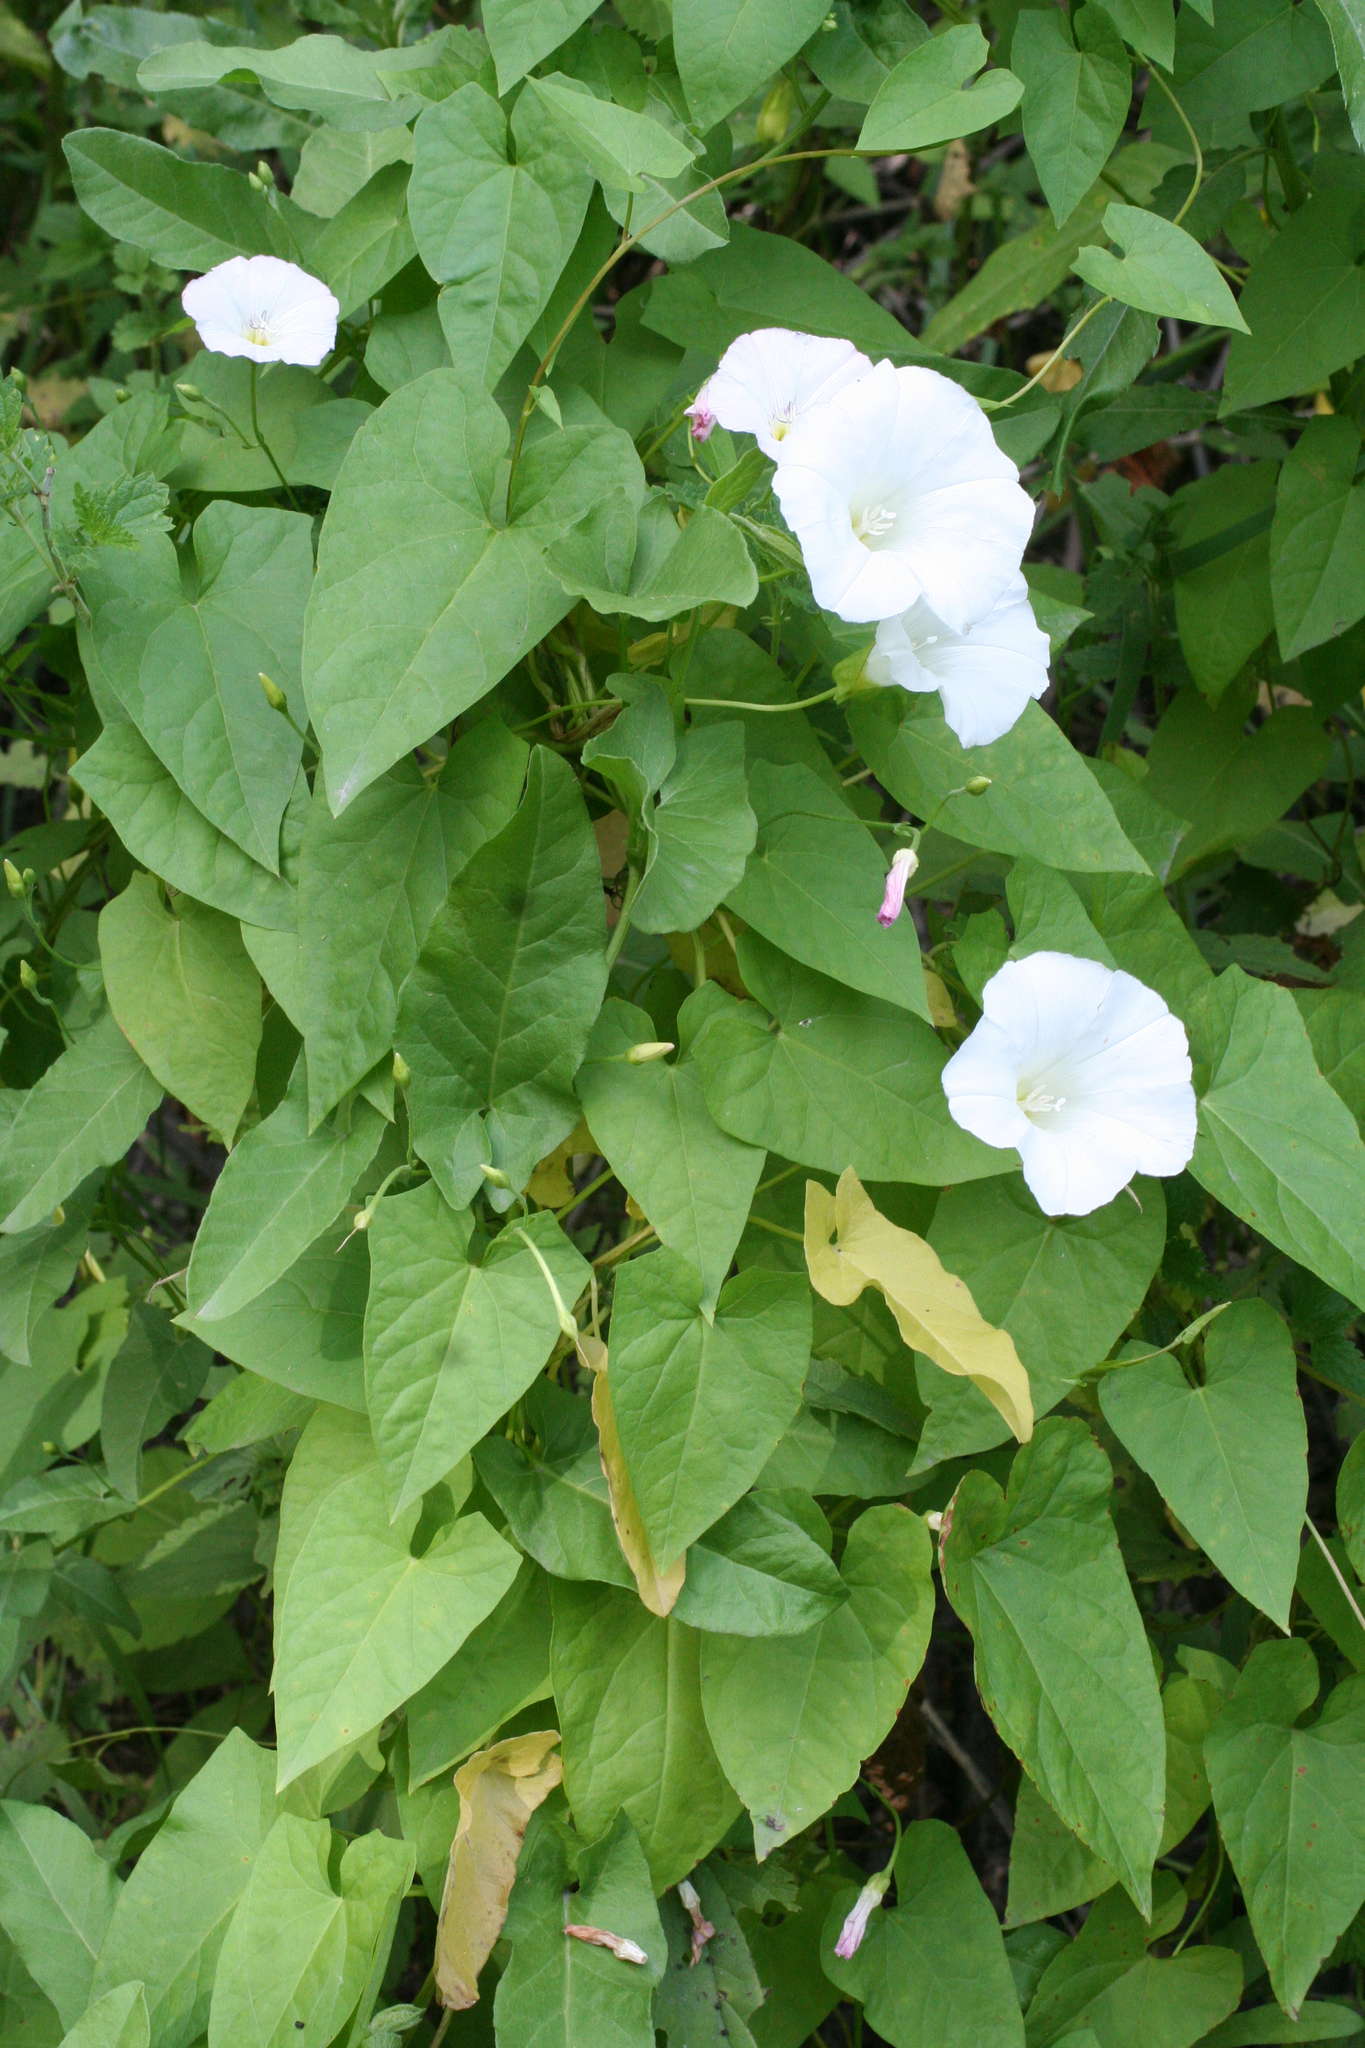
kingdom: Plantae
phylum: Tracheophyta
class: Magnoliopsida
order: Solanales
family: Convolvulaceae
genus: Calystegia
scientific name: Calystegia sepium
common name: Hedge bindweed
